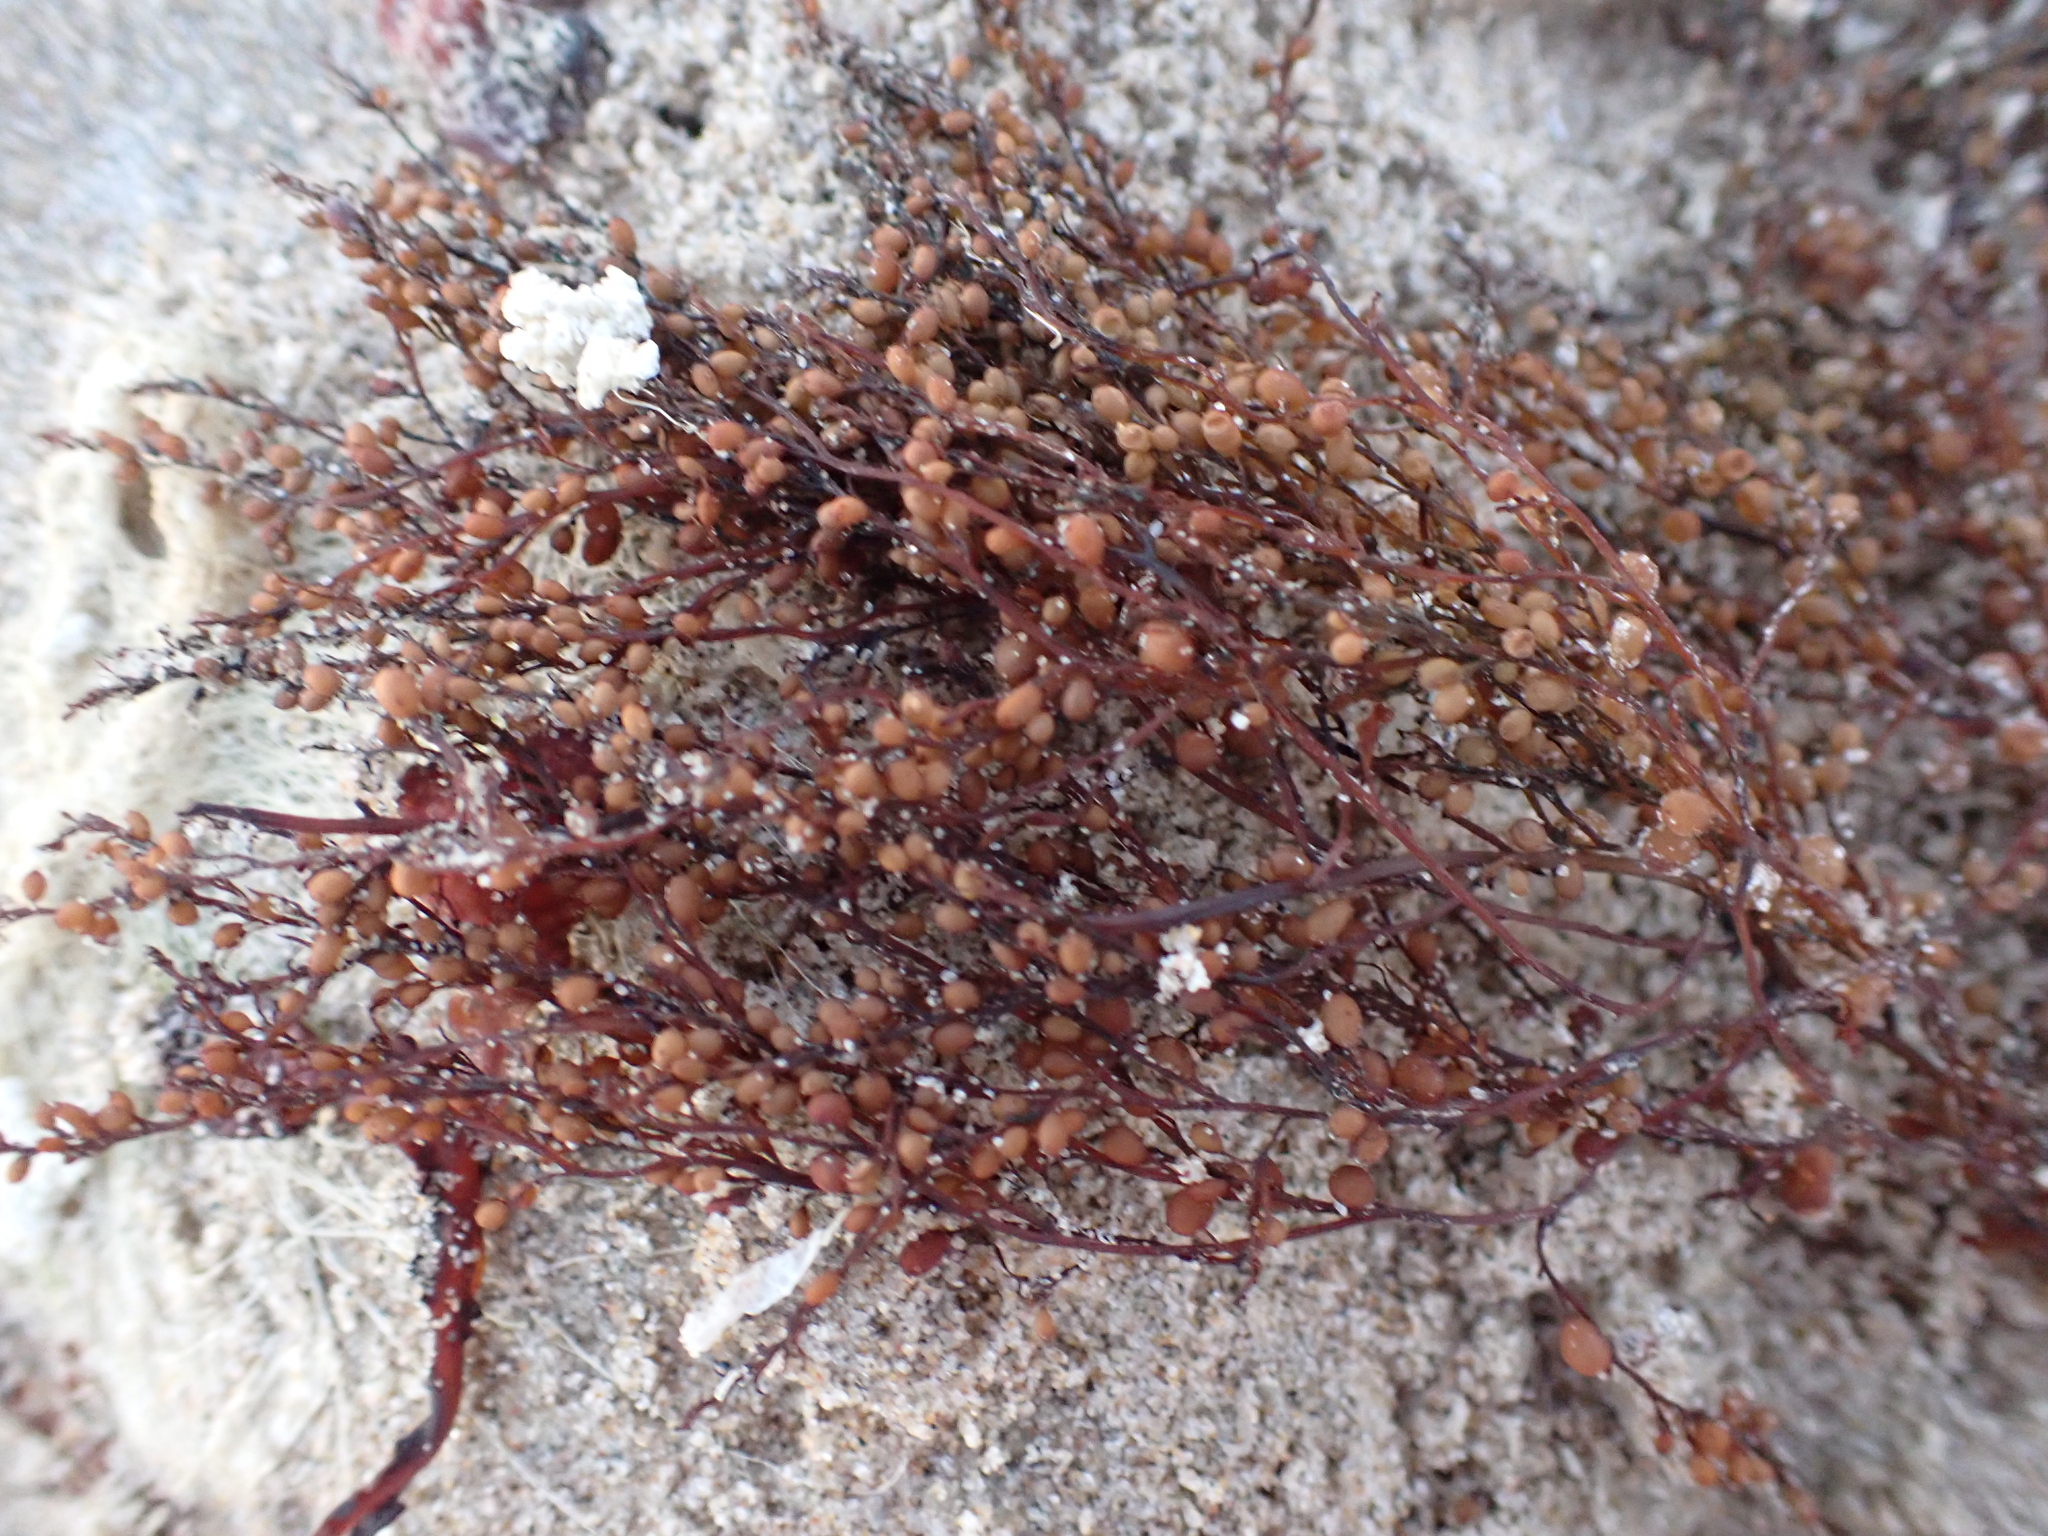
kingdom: Chromista
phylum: Ochrophyta
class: Phaeophyceae
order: Fucales
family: Sargassaceae
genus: Sargassum
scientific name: Sargassum muticum
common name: Japweed
